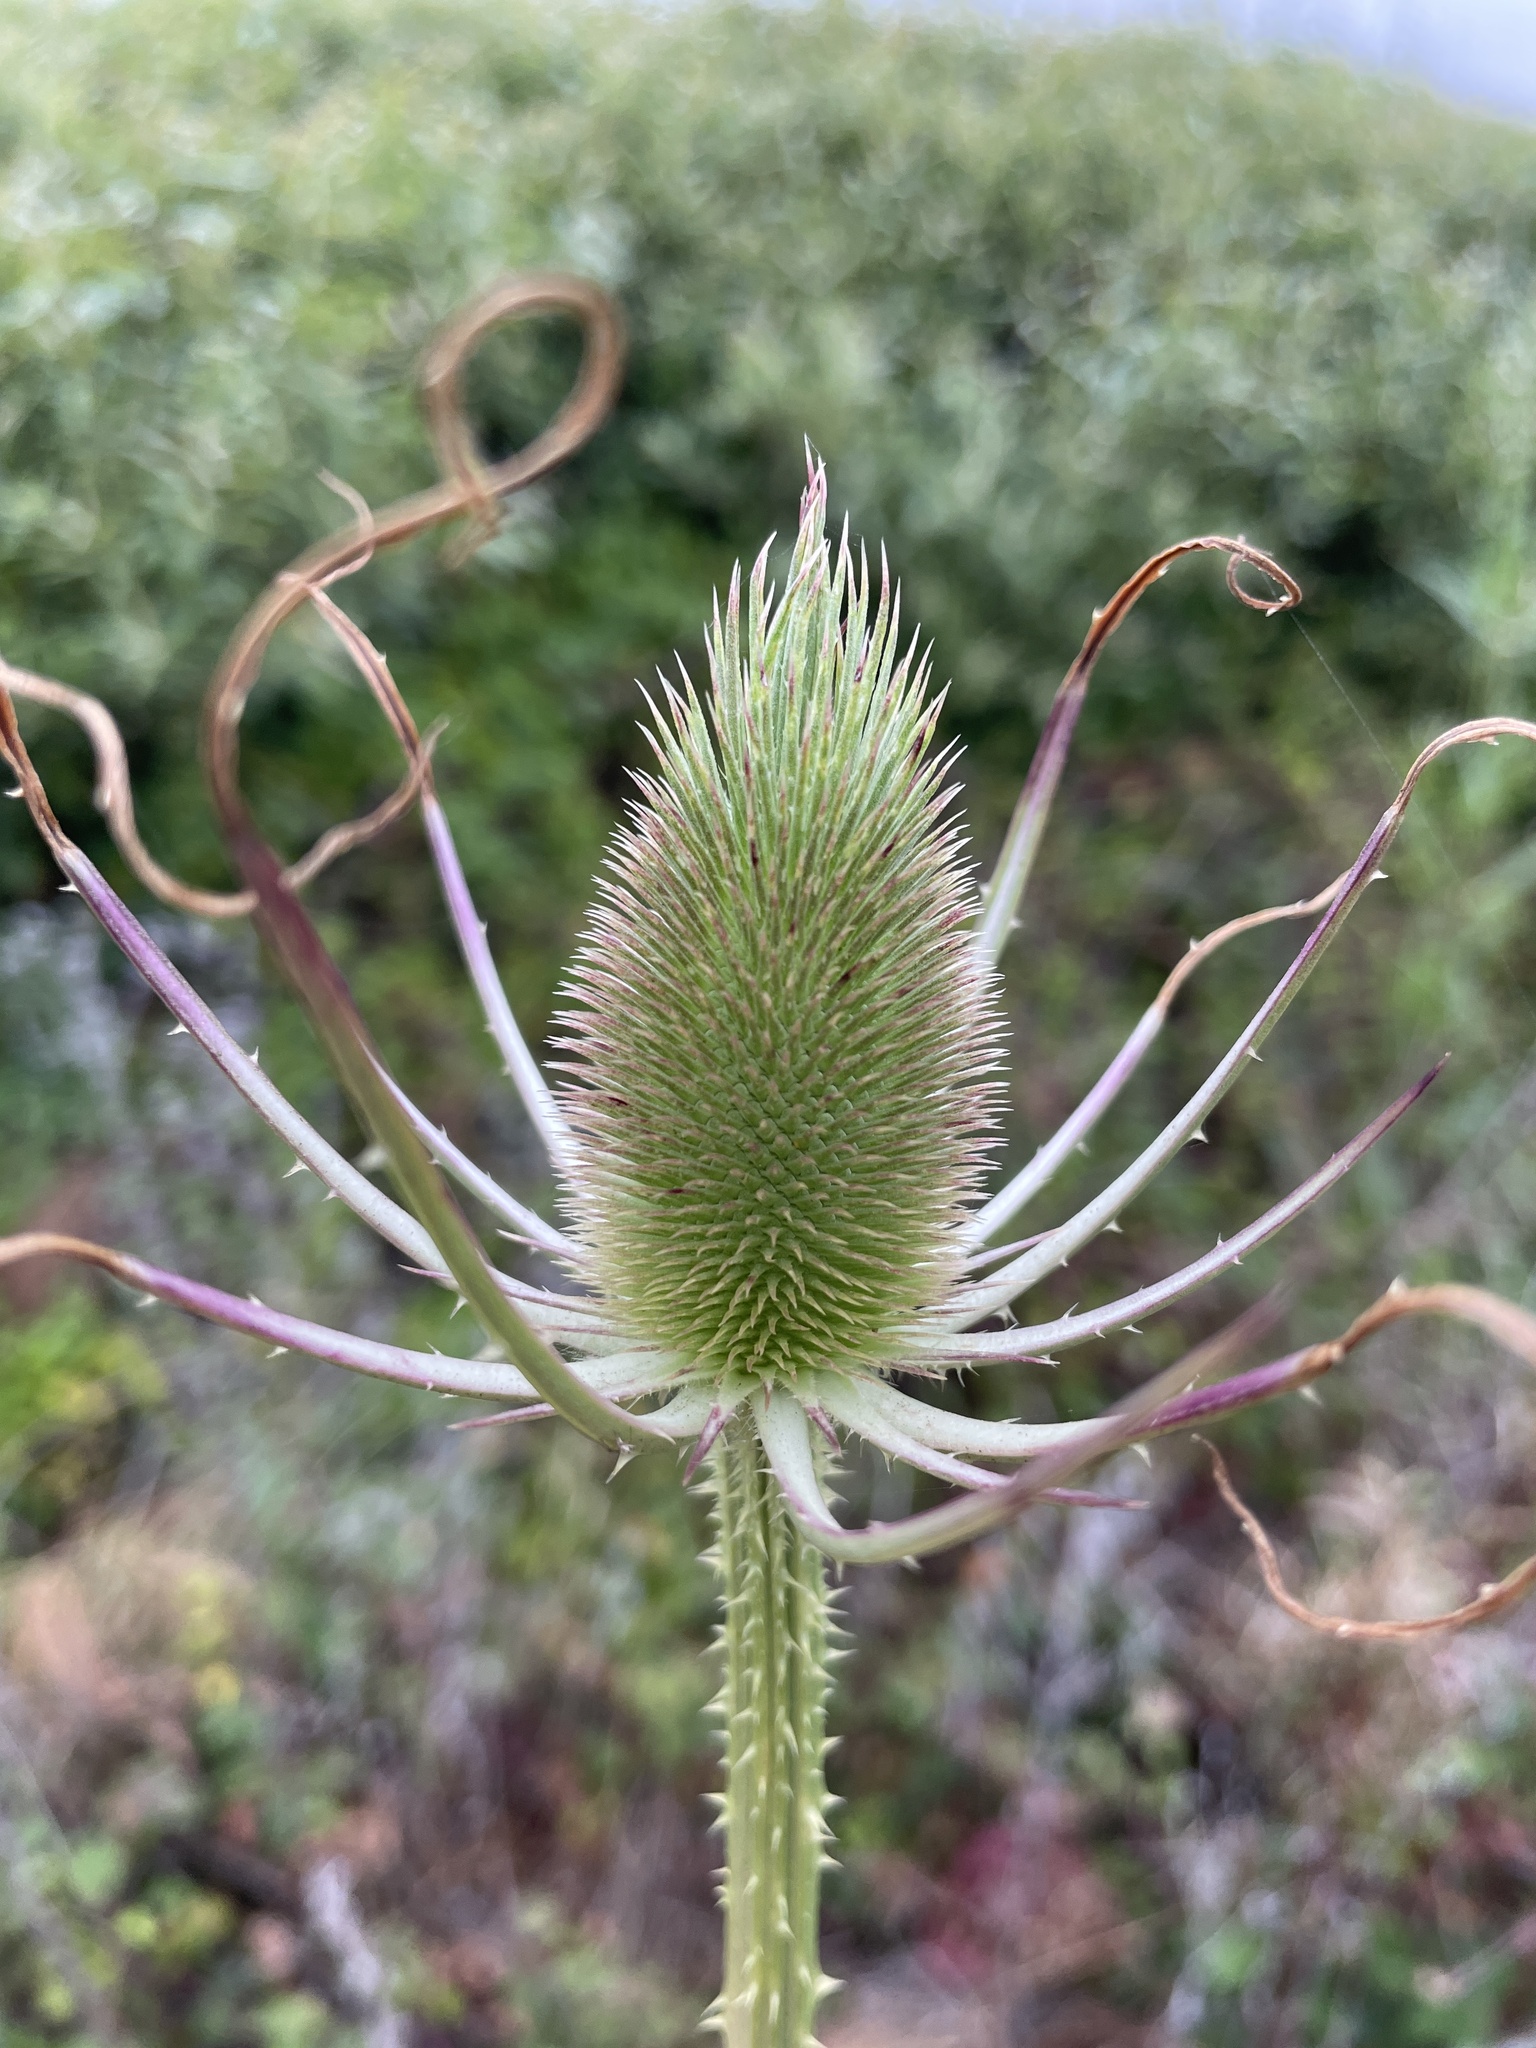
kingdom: Plantae
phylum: Tracheophyta
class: Magnoliopsida
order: Dipsacales
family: Caprifoliaceae
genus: Dipsacus
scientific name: Dipsacus fullonum
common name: Teasel
